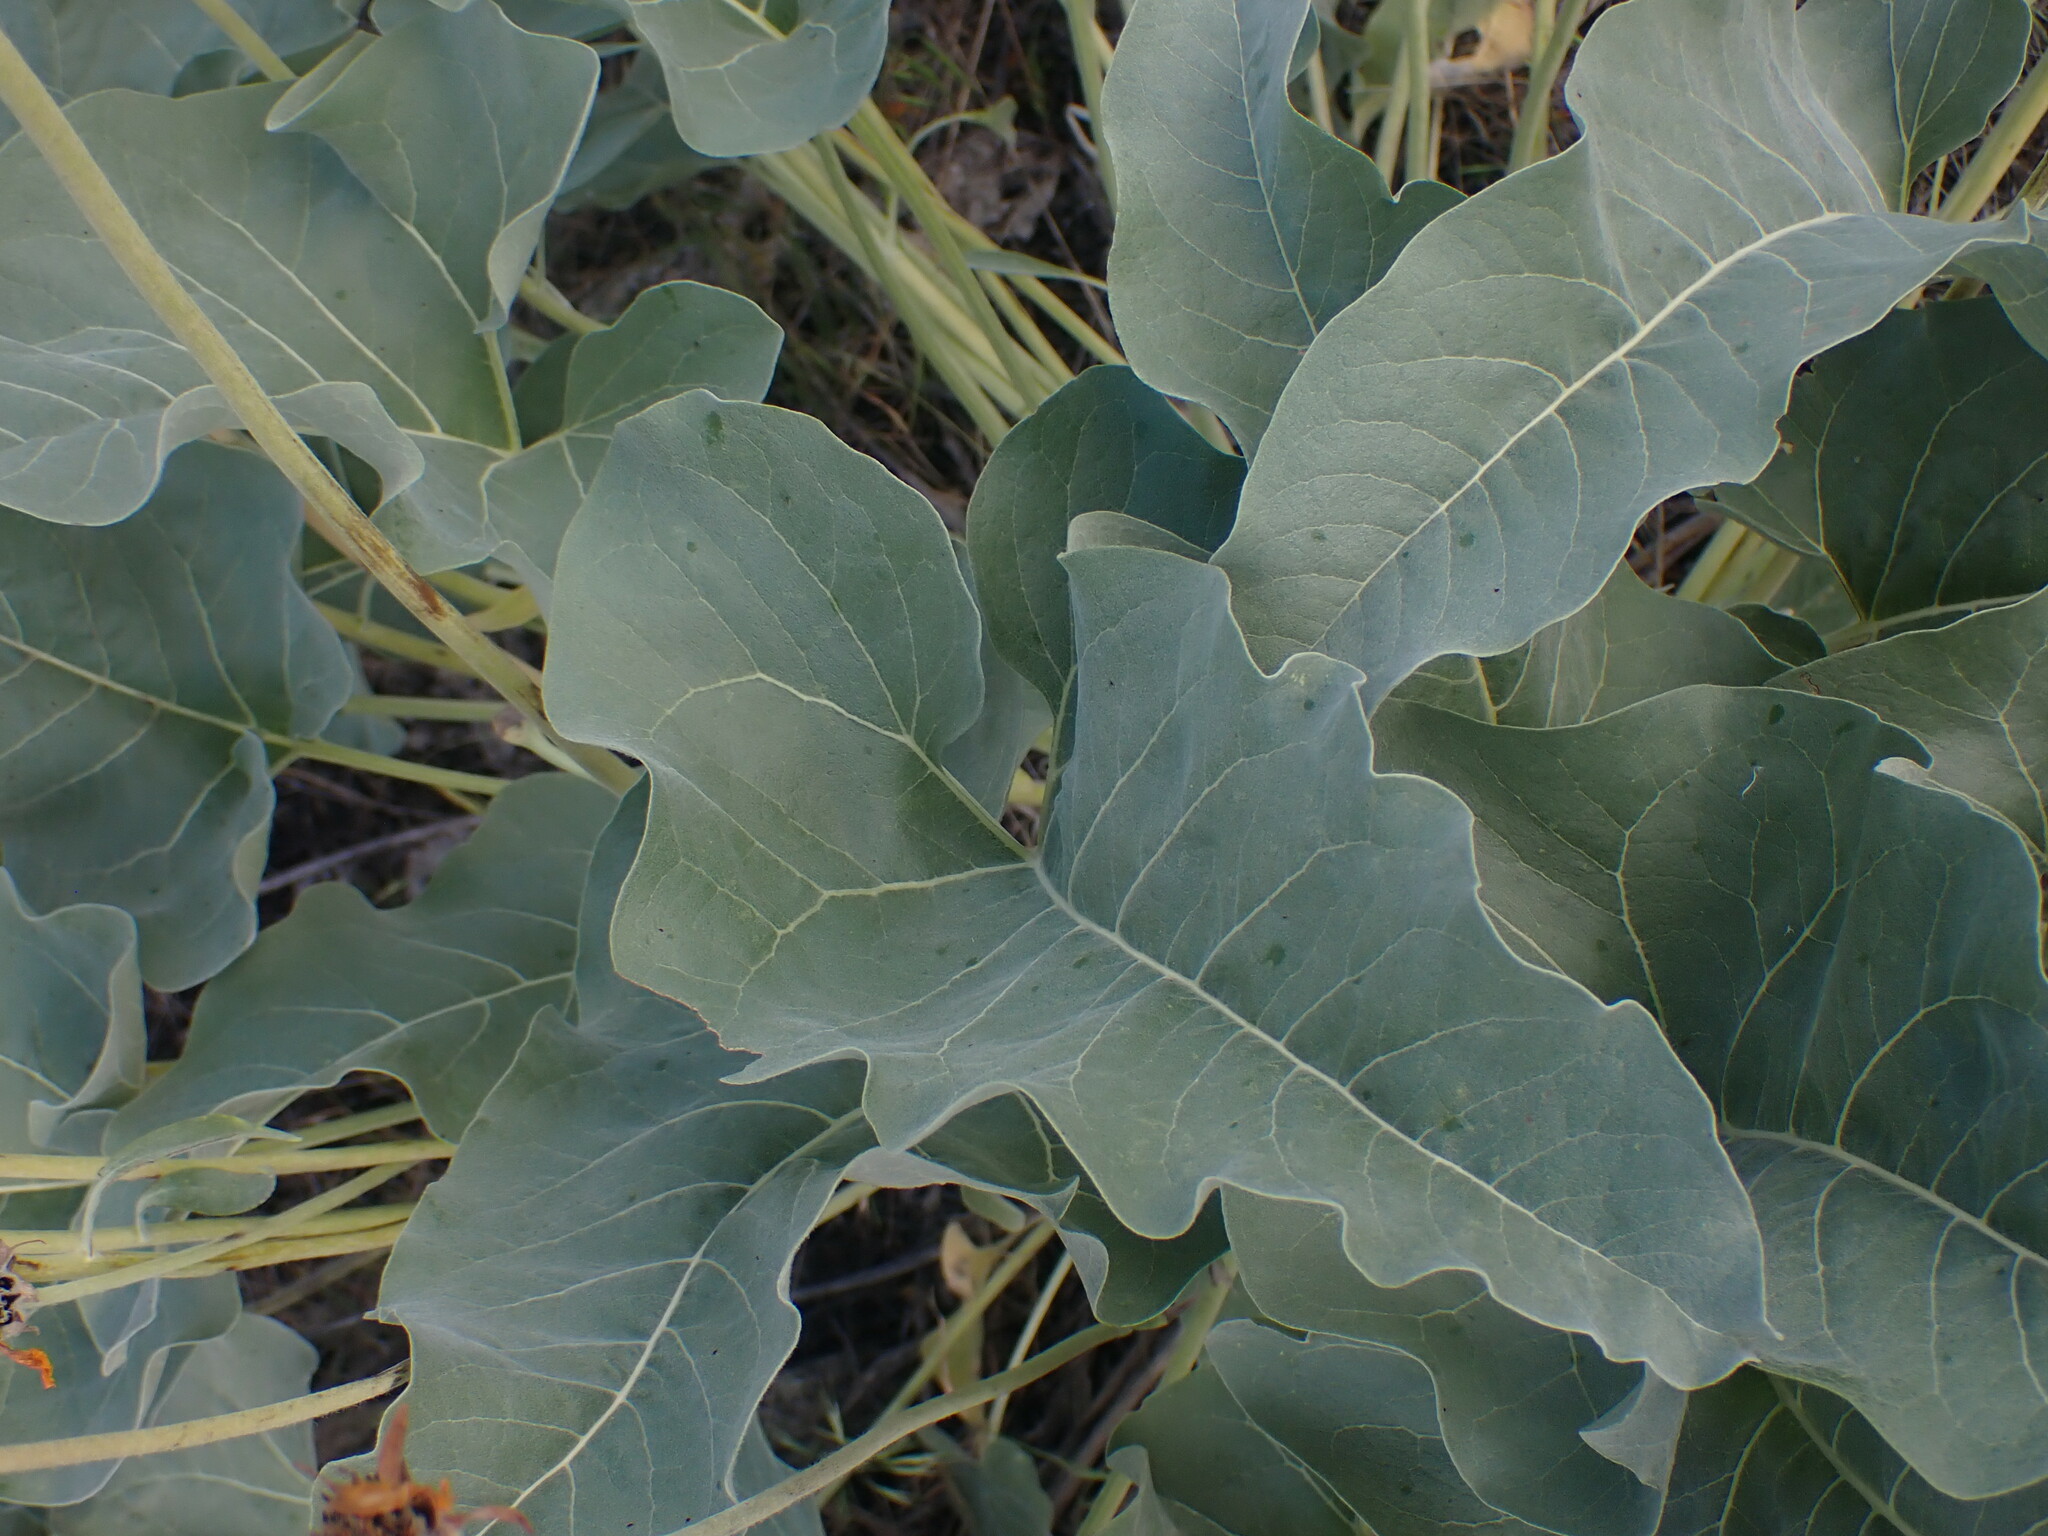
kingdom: Plantae
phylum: Tracheophyta
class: Magnoliopsida
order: Asterales
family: Asteraceae
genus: Wyethia
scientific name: Wyethia sagittata
